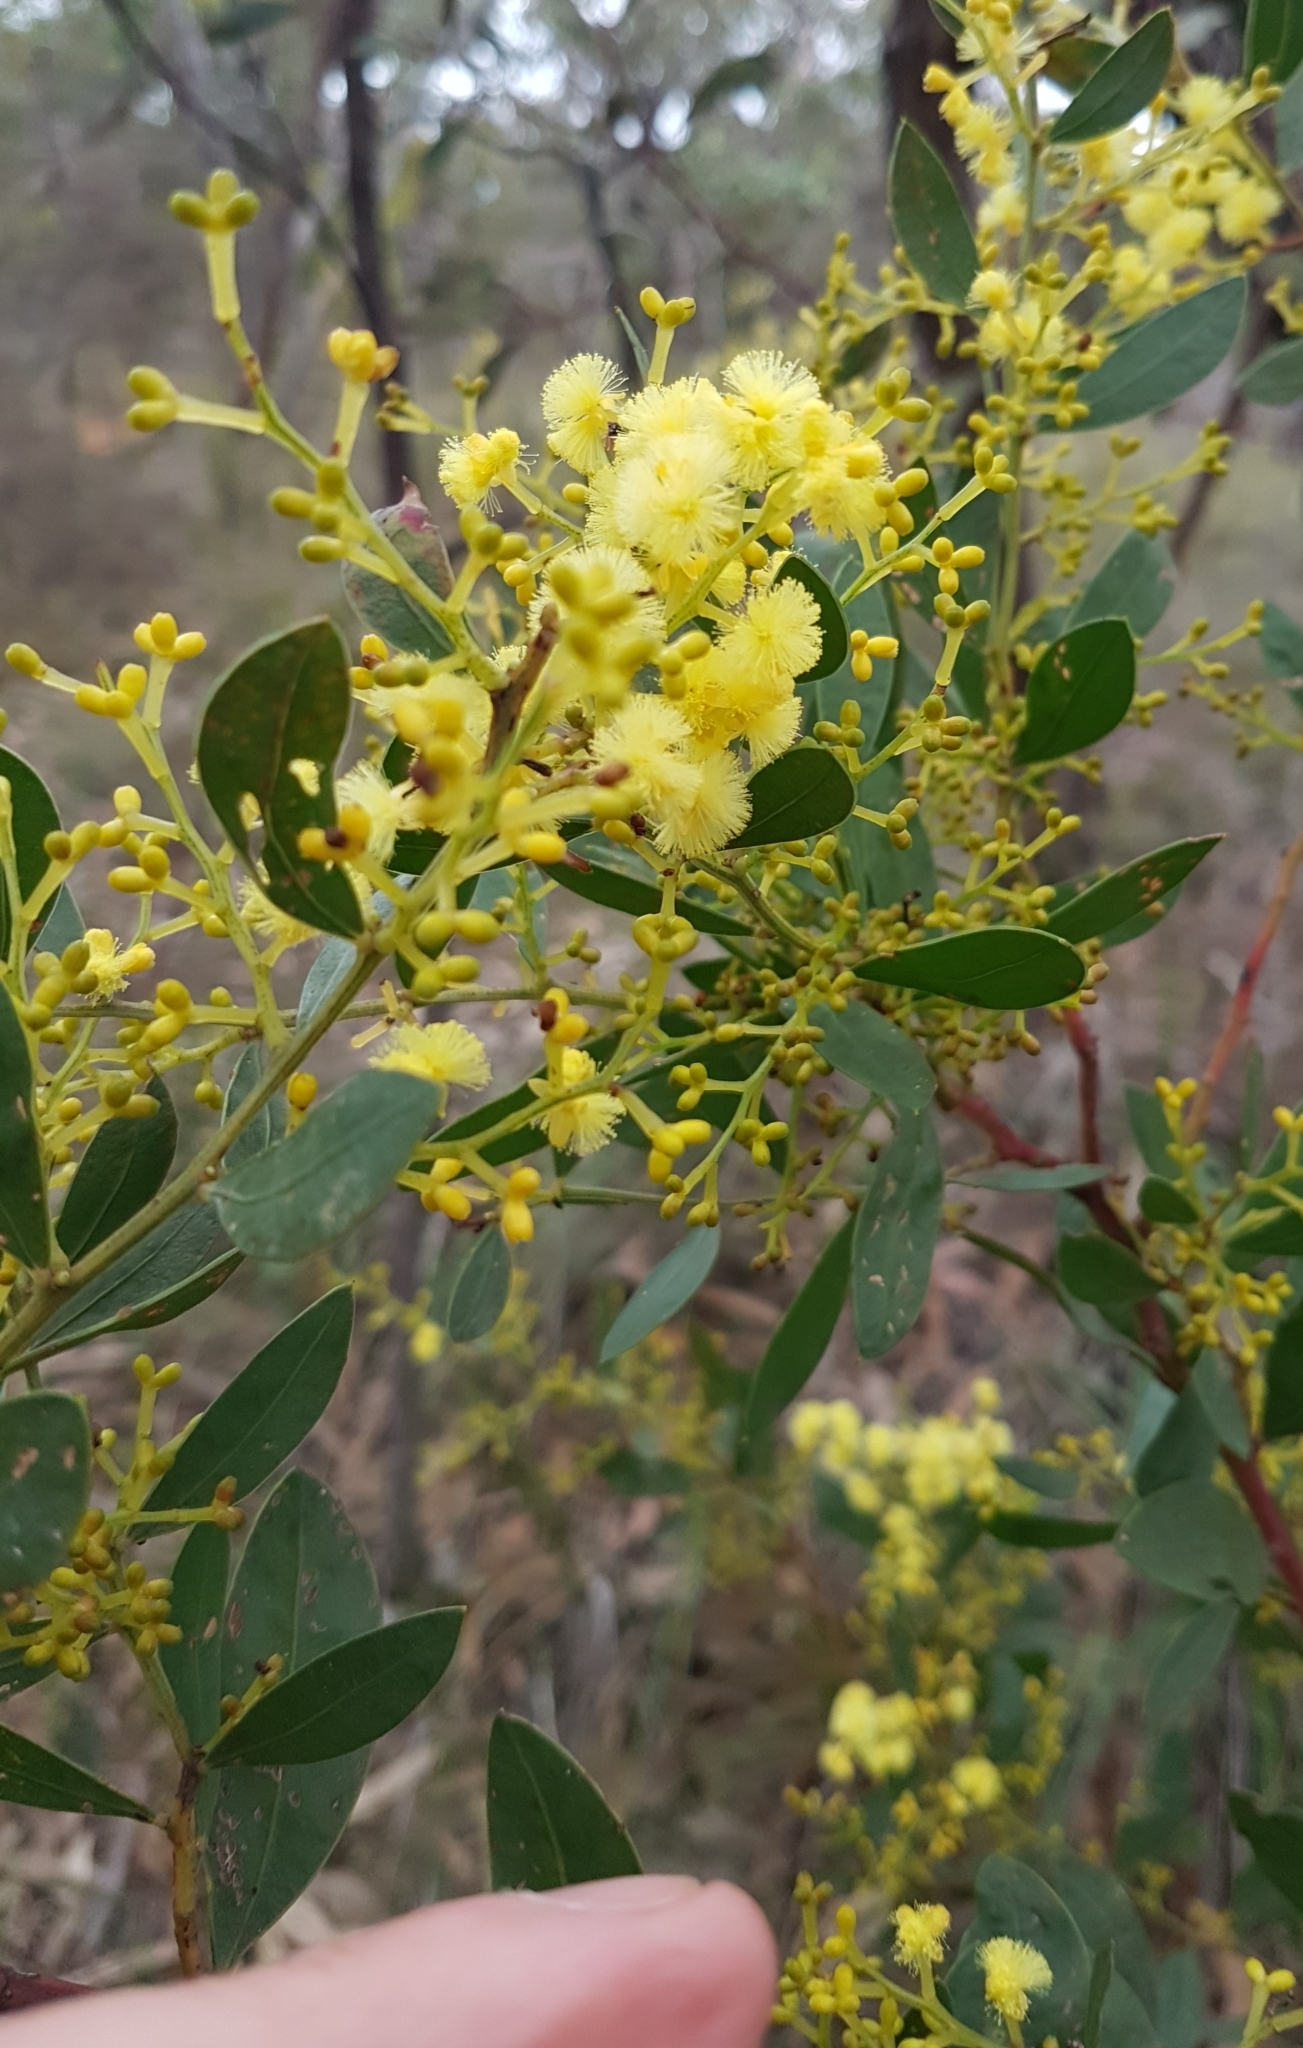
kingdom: Plantae
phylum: Tracheophyta
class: Magnoliopsida
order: Fabales
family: Fabaceae
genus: Acacia
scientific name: Acacia myrtifolia
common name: Myrtle wattle
